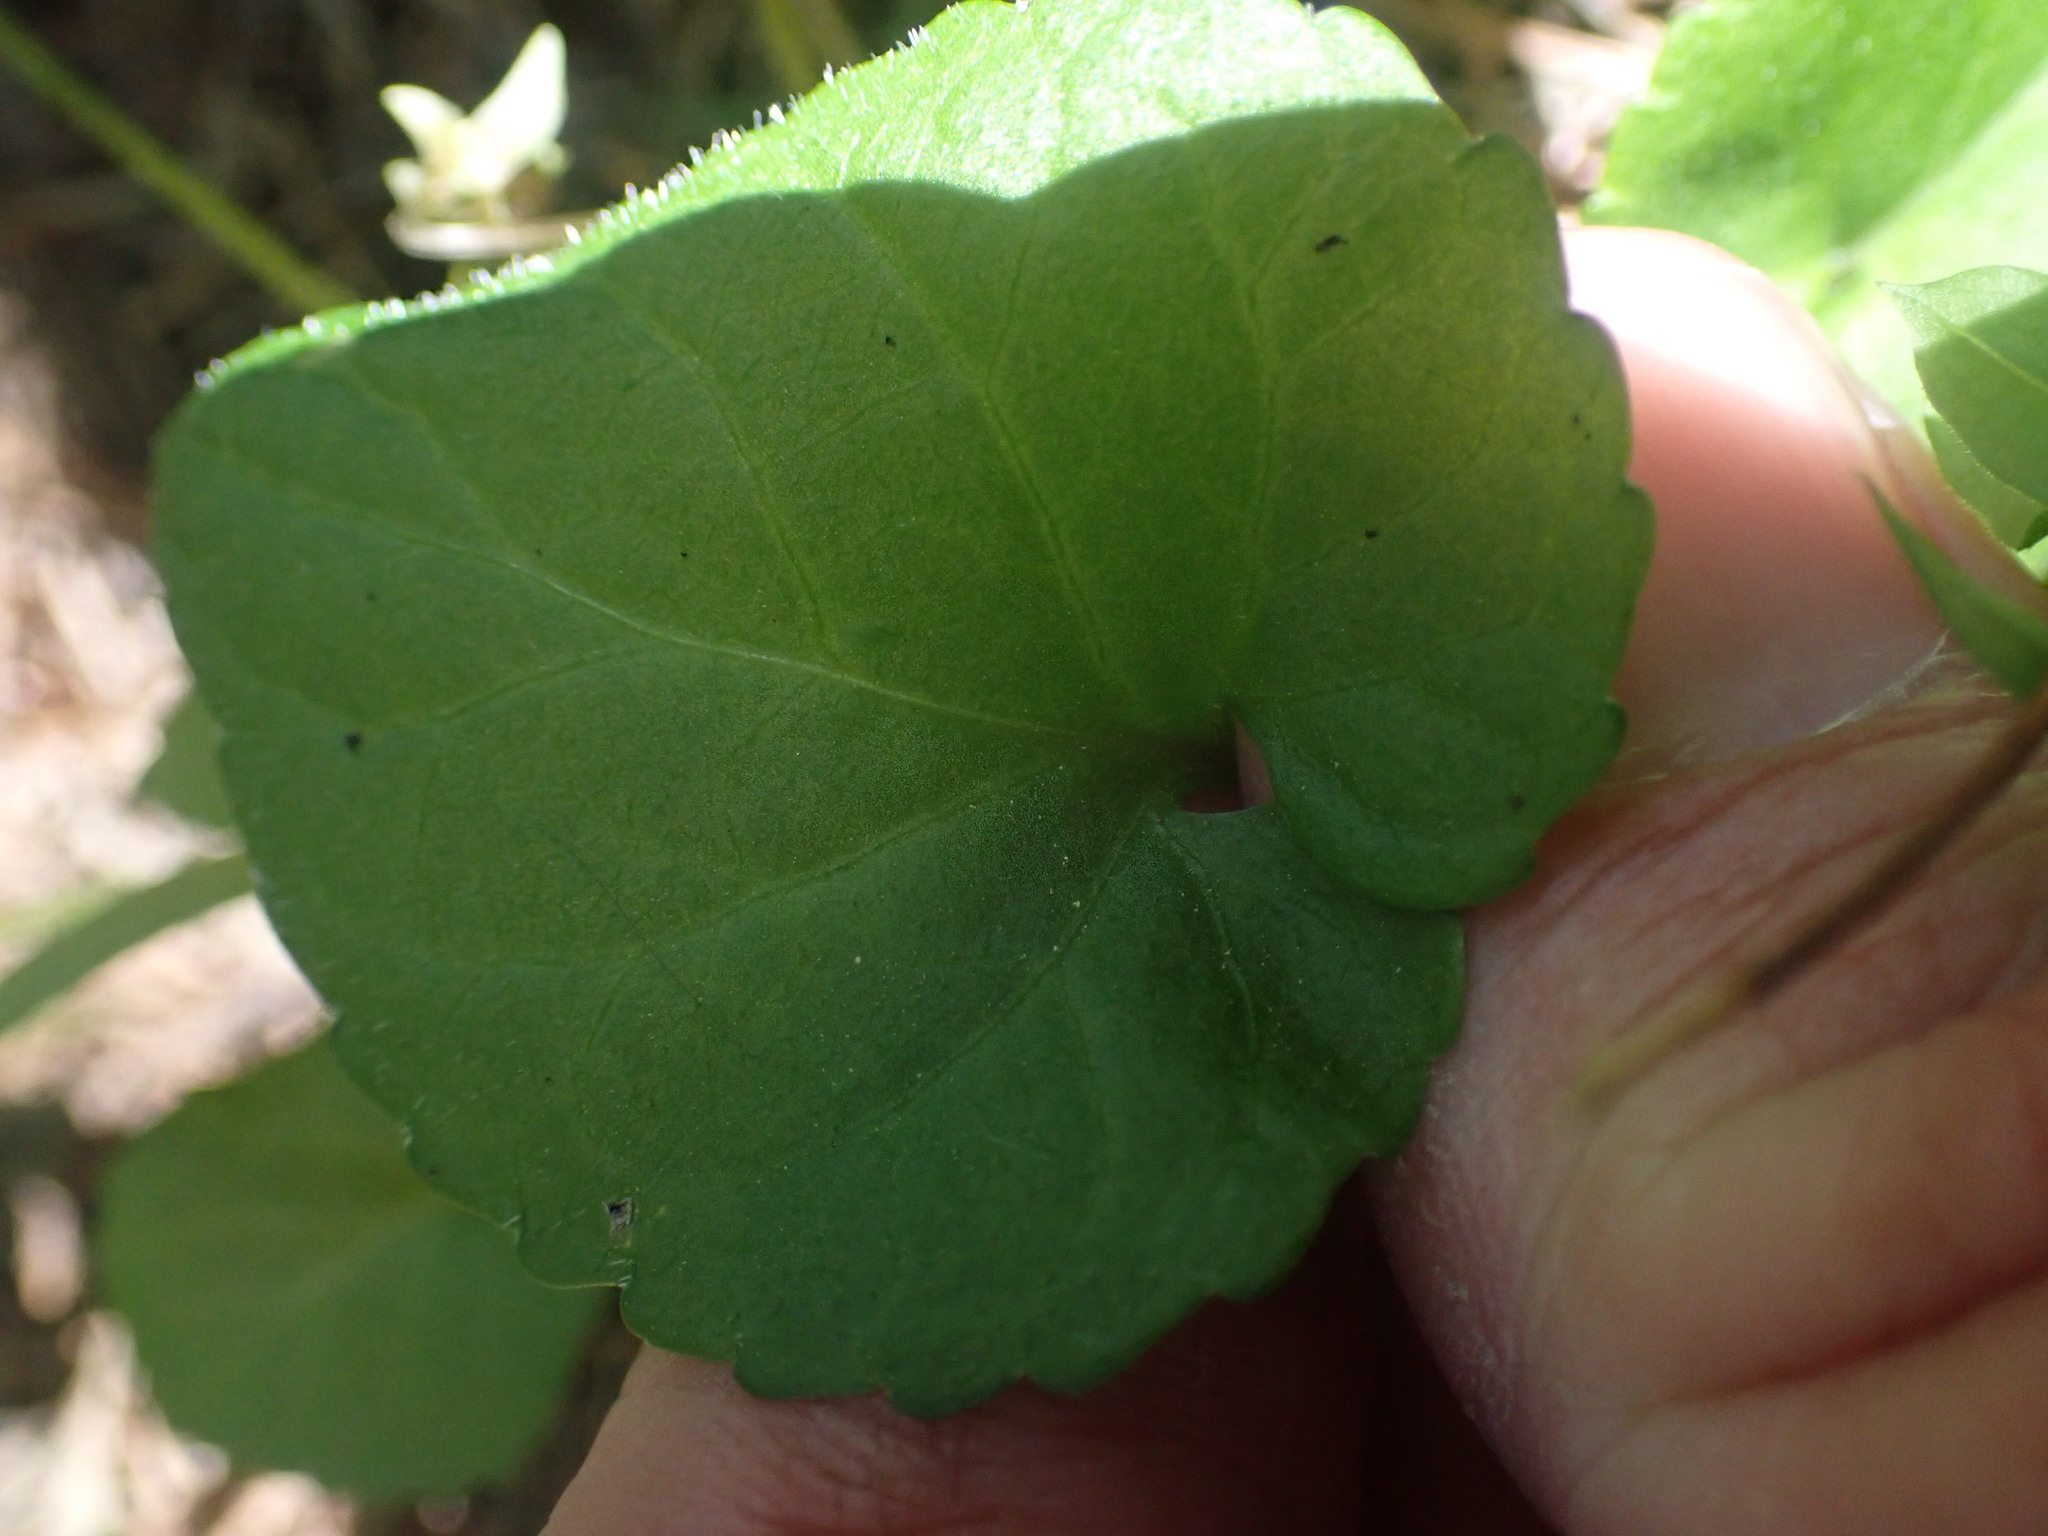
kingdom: Plantae
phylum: Tracheophyta
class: Magnoliopsida
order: Malpighiales
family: Violaceae
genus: Viola
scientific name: Viola selkirkii
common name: Selkirk's violet
